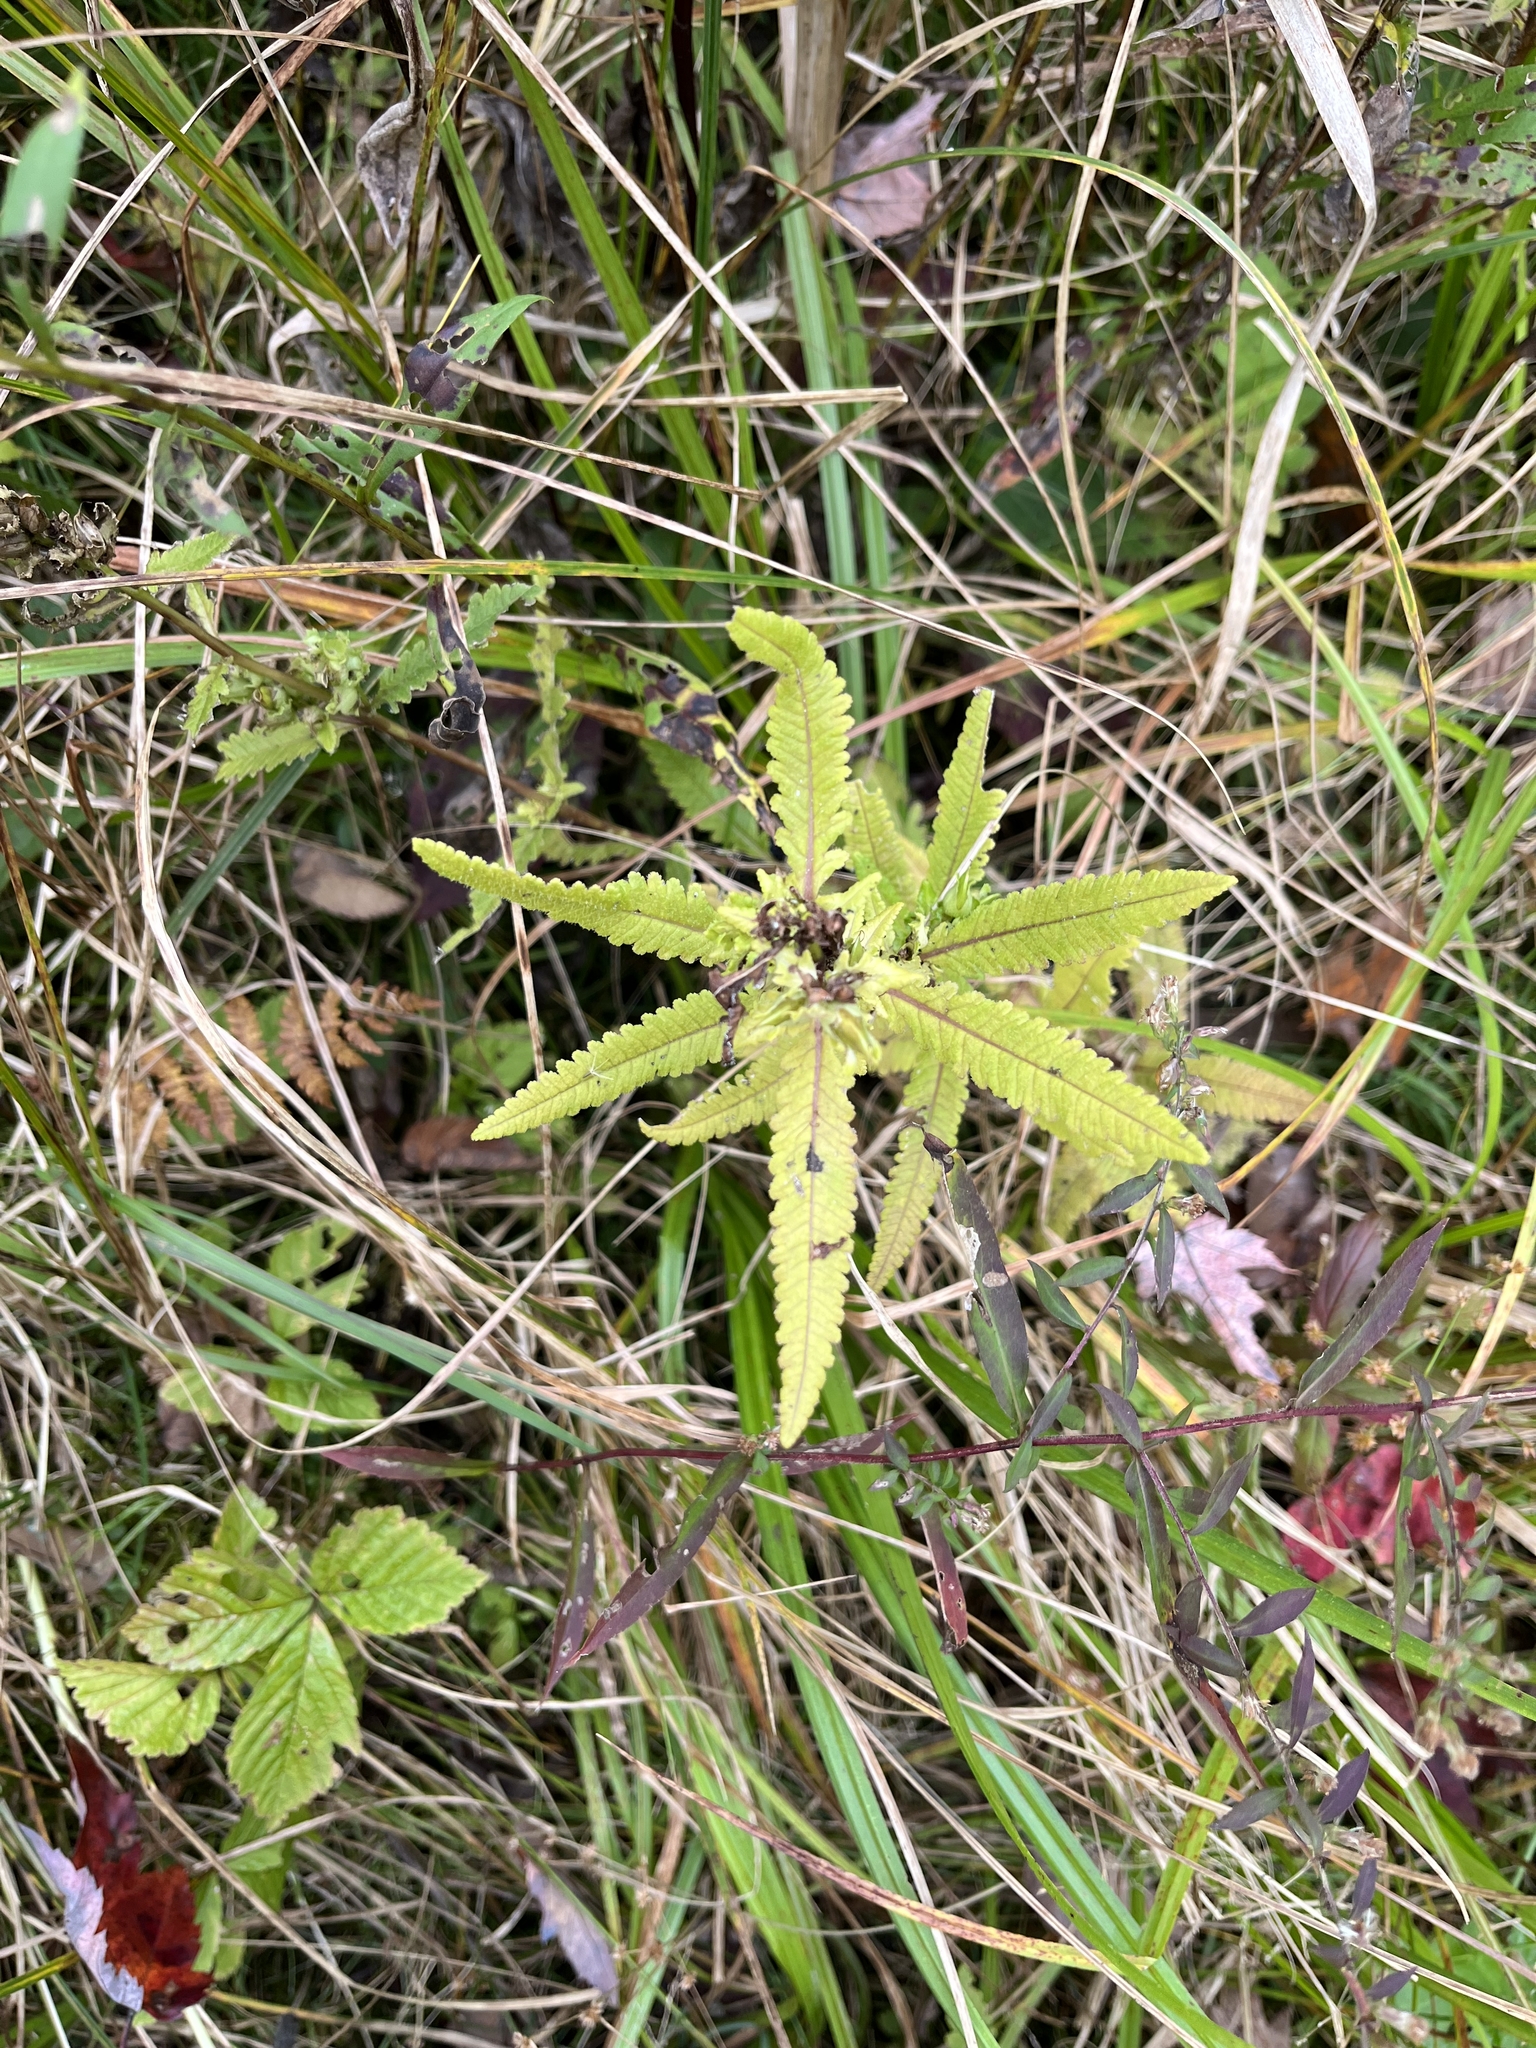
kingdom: Plantae
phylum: Tracheophyta
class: Magnoliopsida
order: Lamiales
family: Orobanchaceae
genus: Pedicularis
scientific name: Pedicularis lanceolata
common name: Swamp lousewort
